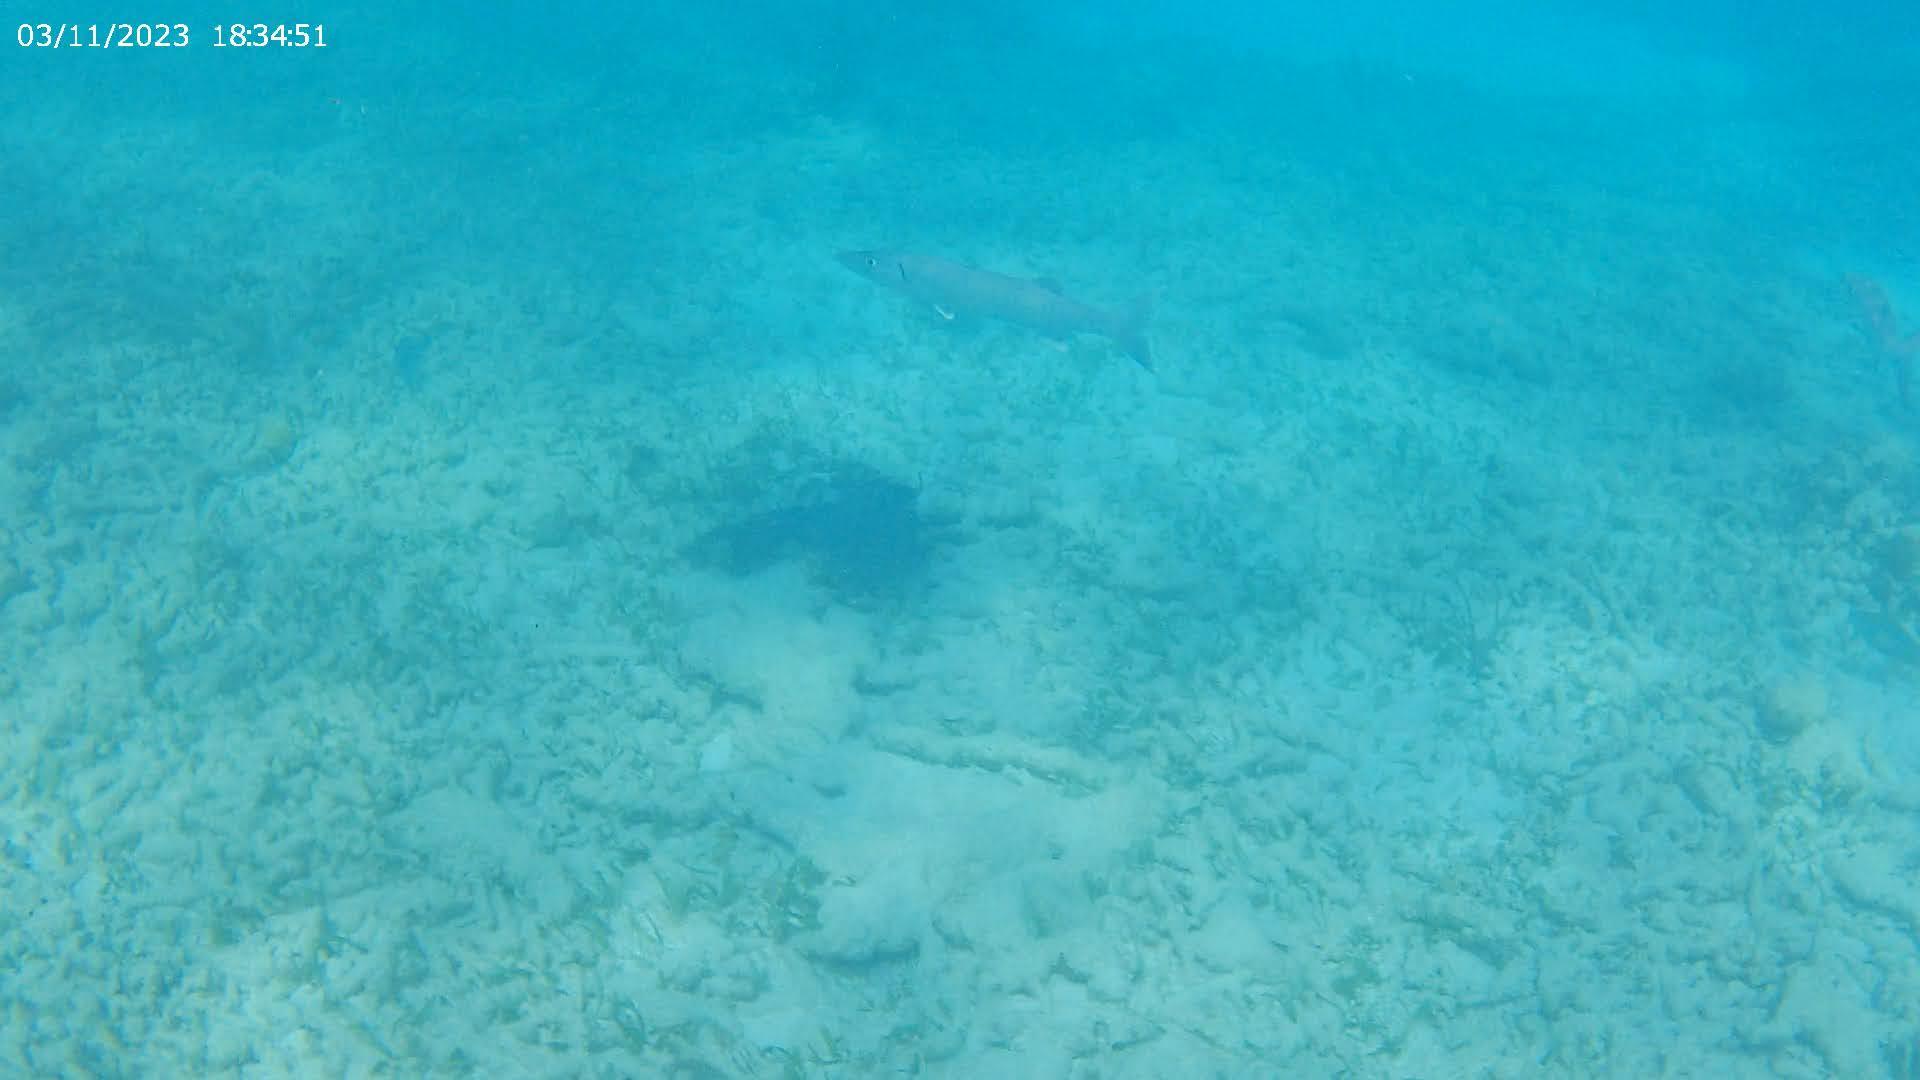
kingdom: Animalia
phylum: Chordata
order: Perciformes
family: Sphyraenidae
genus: Sphyraena
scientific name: Sphyraena barracuda
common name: Great barracuda
